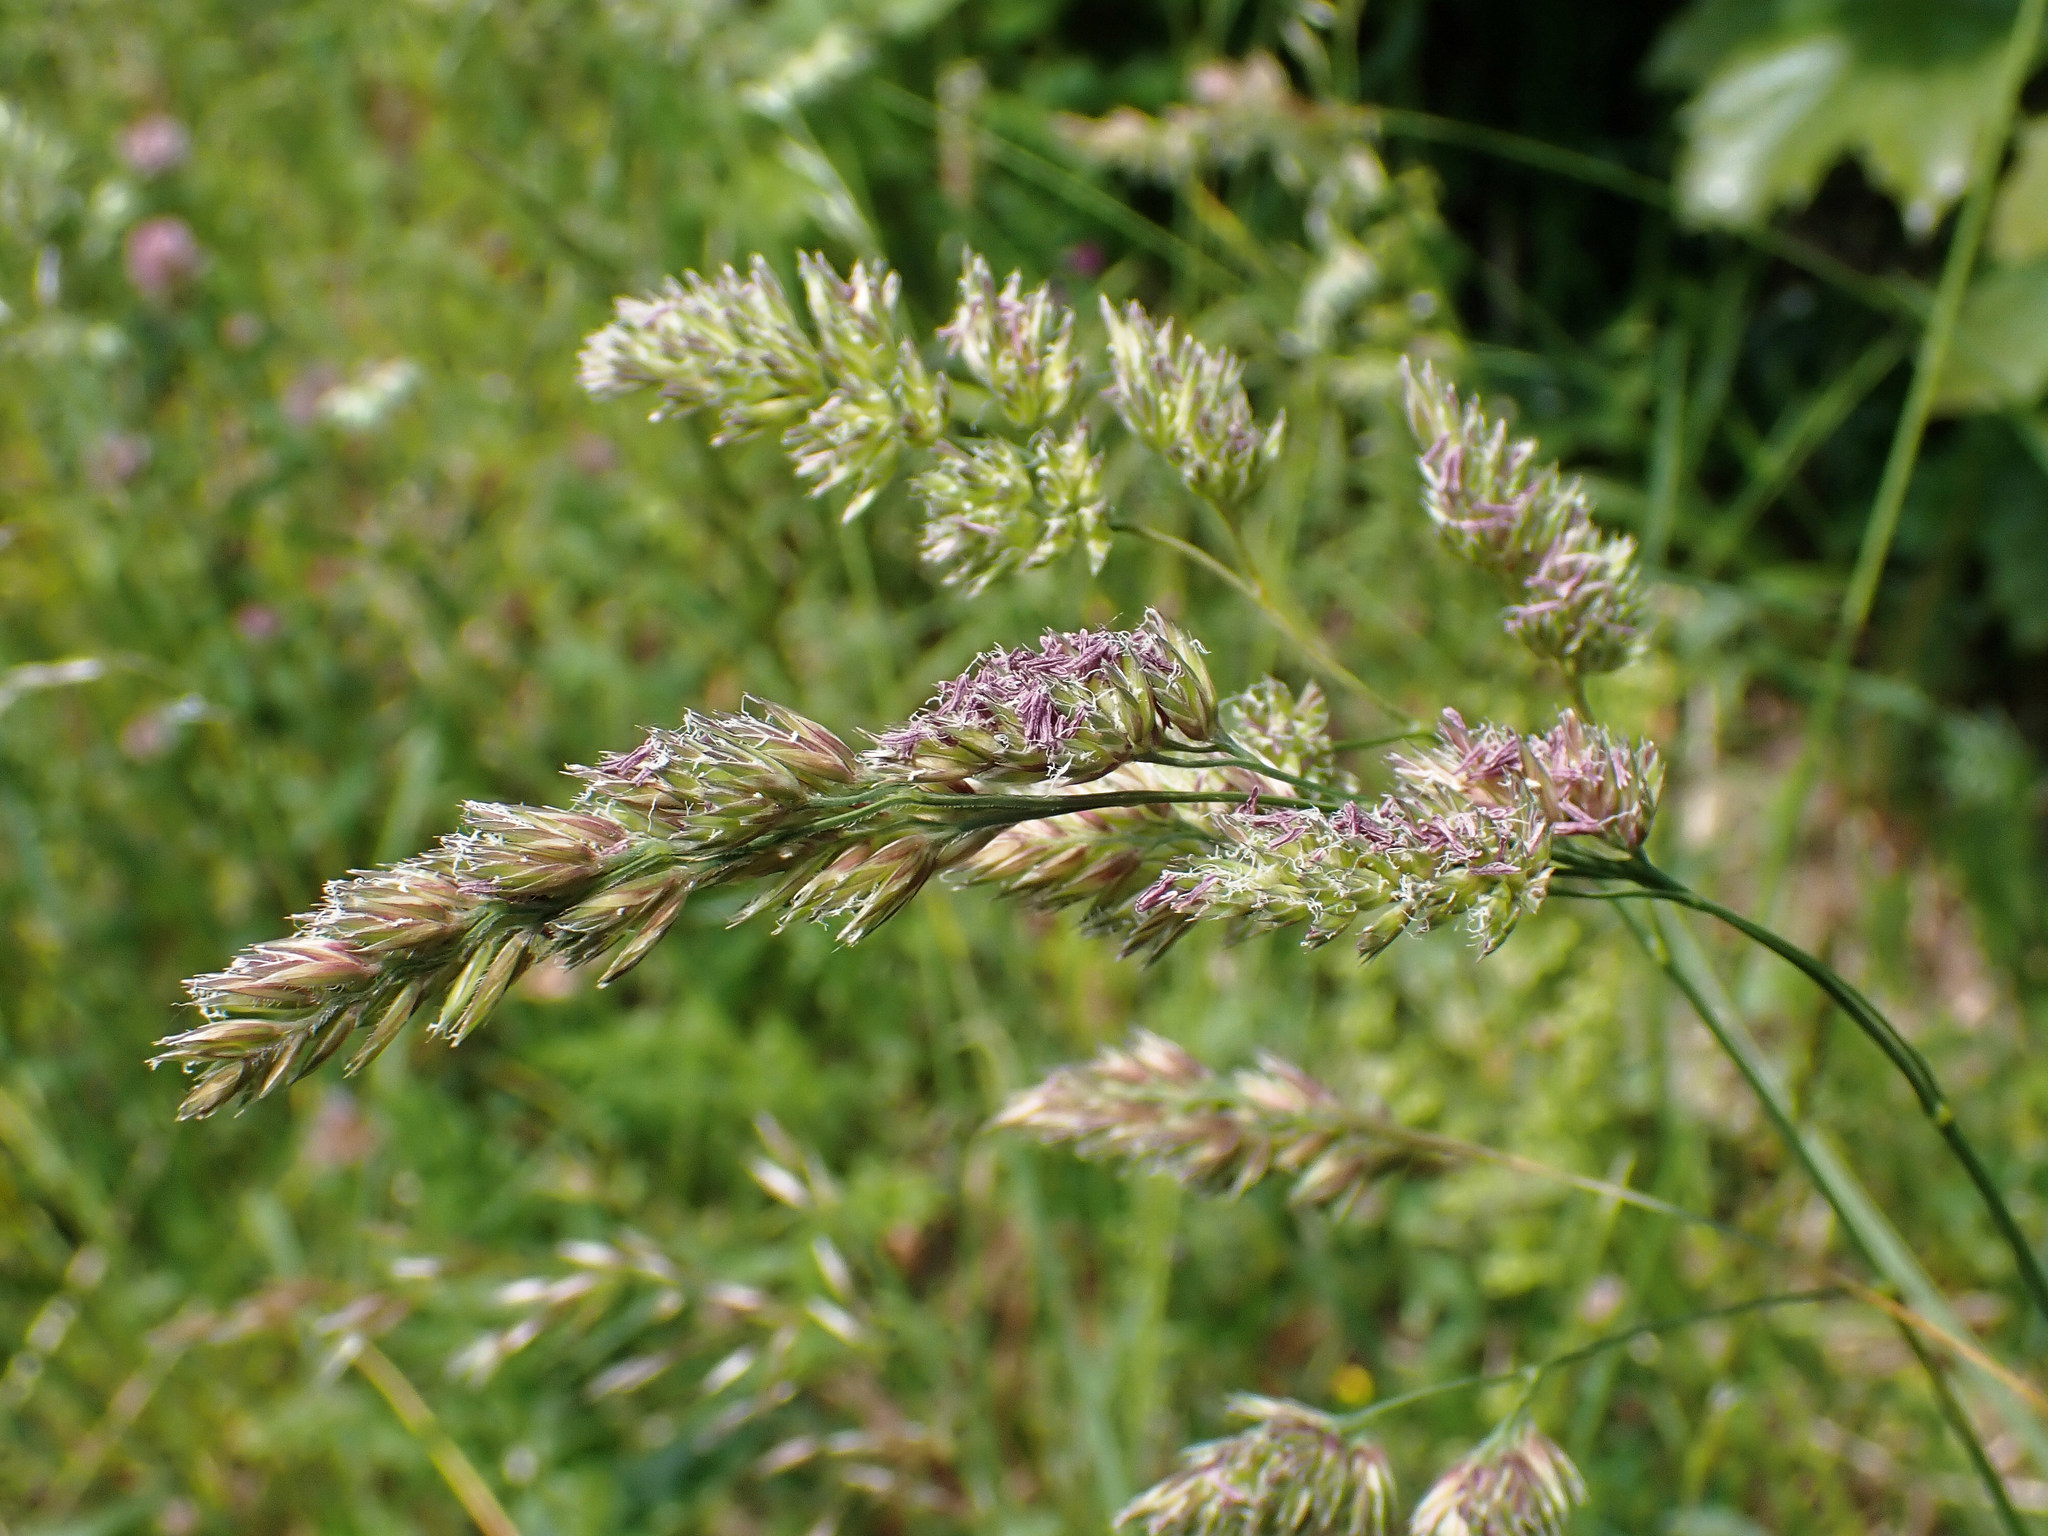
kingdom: Plantae
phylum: Tracheophyta
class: Liliopsida
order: Poales
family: Poaceae
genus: Dactylis
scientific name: Dactylis glomerata
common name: Orchardgrass
